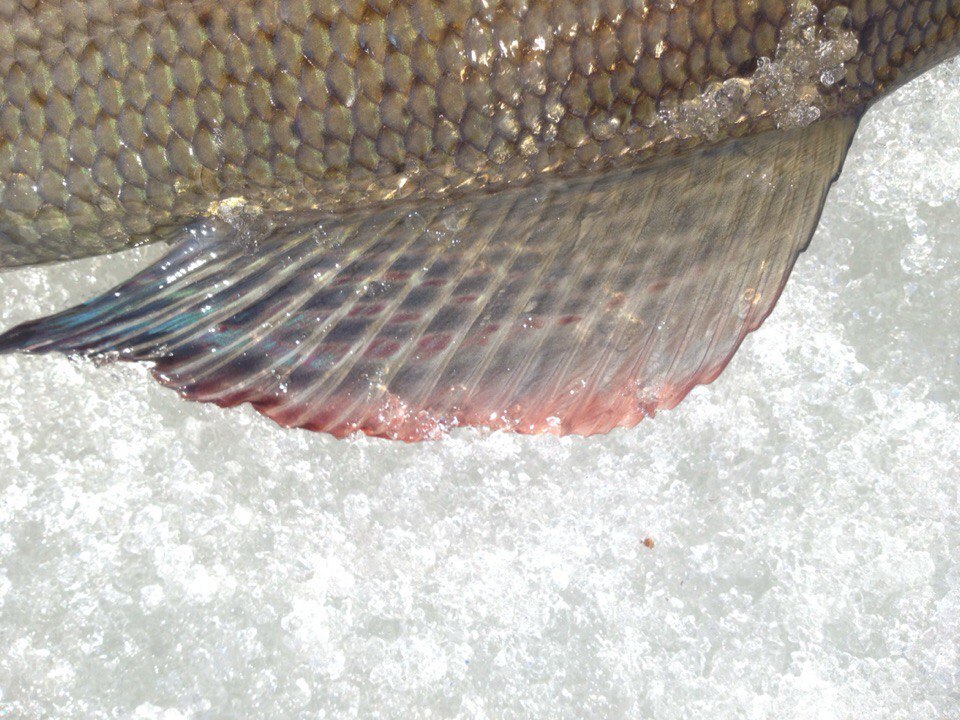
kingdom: Animalia
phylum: Chordata
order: Salmoniformes
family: Salmonidae
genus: Thymallus
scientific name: Thymallus thymallus
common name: Grayling
